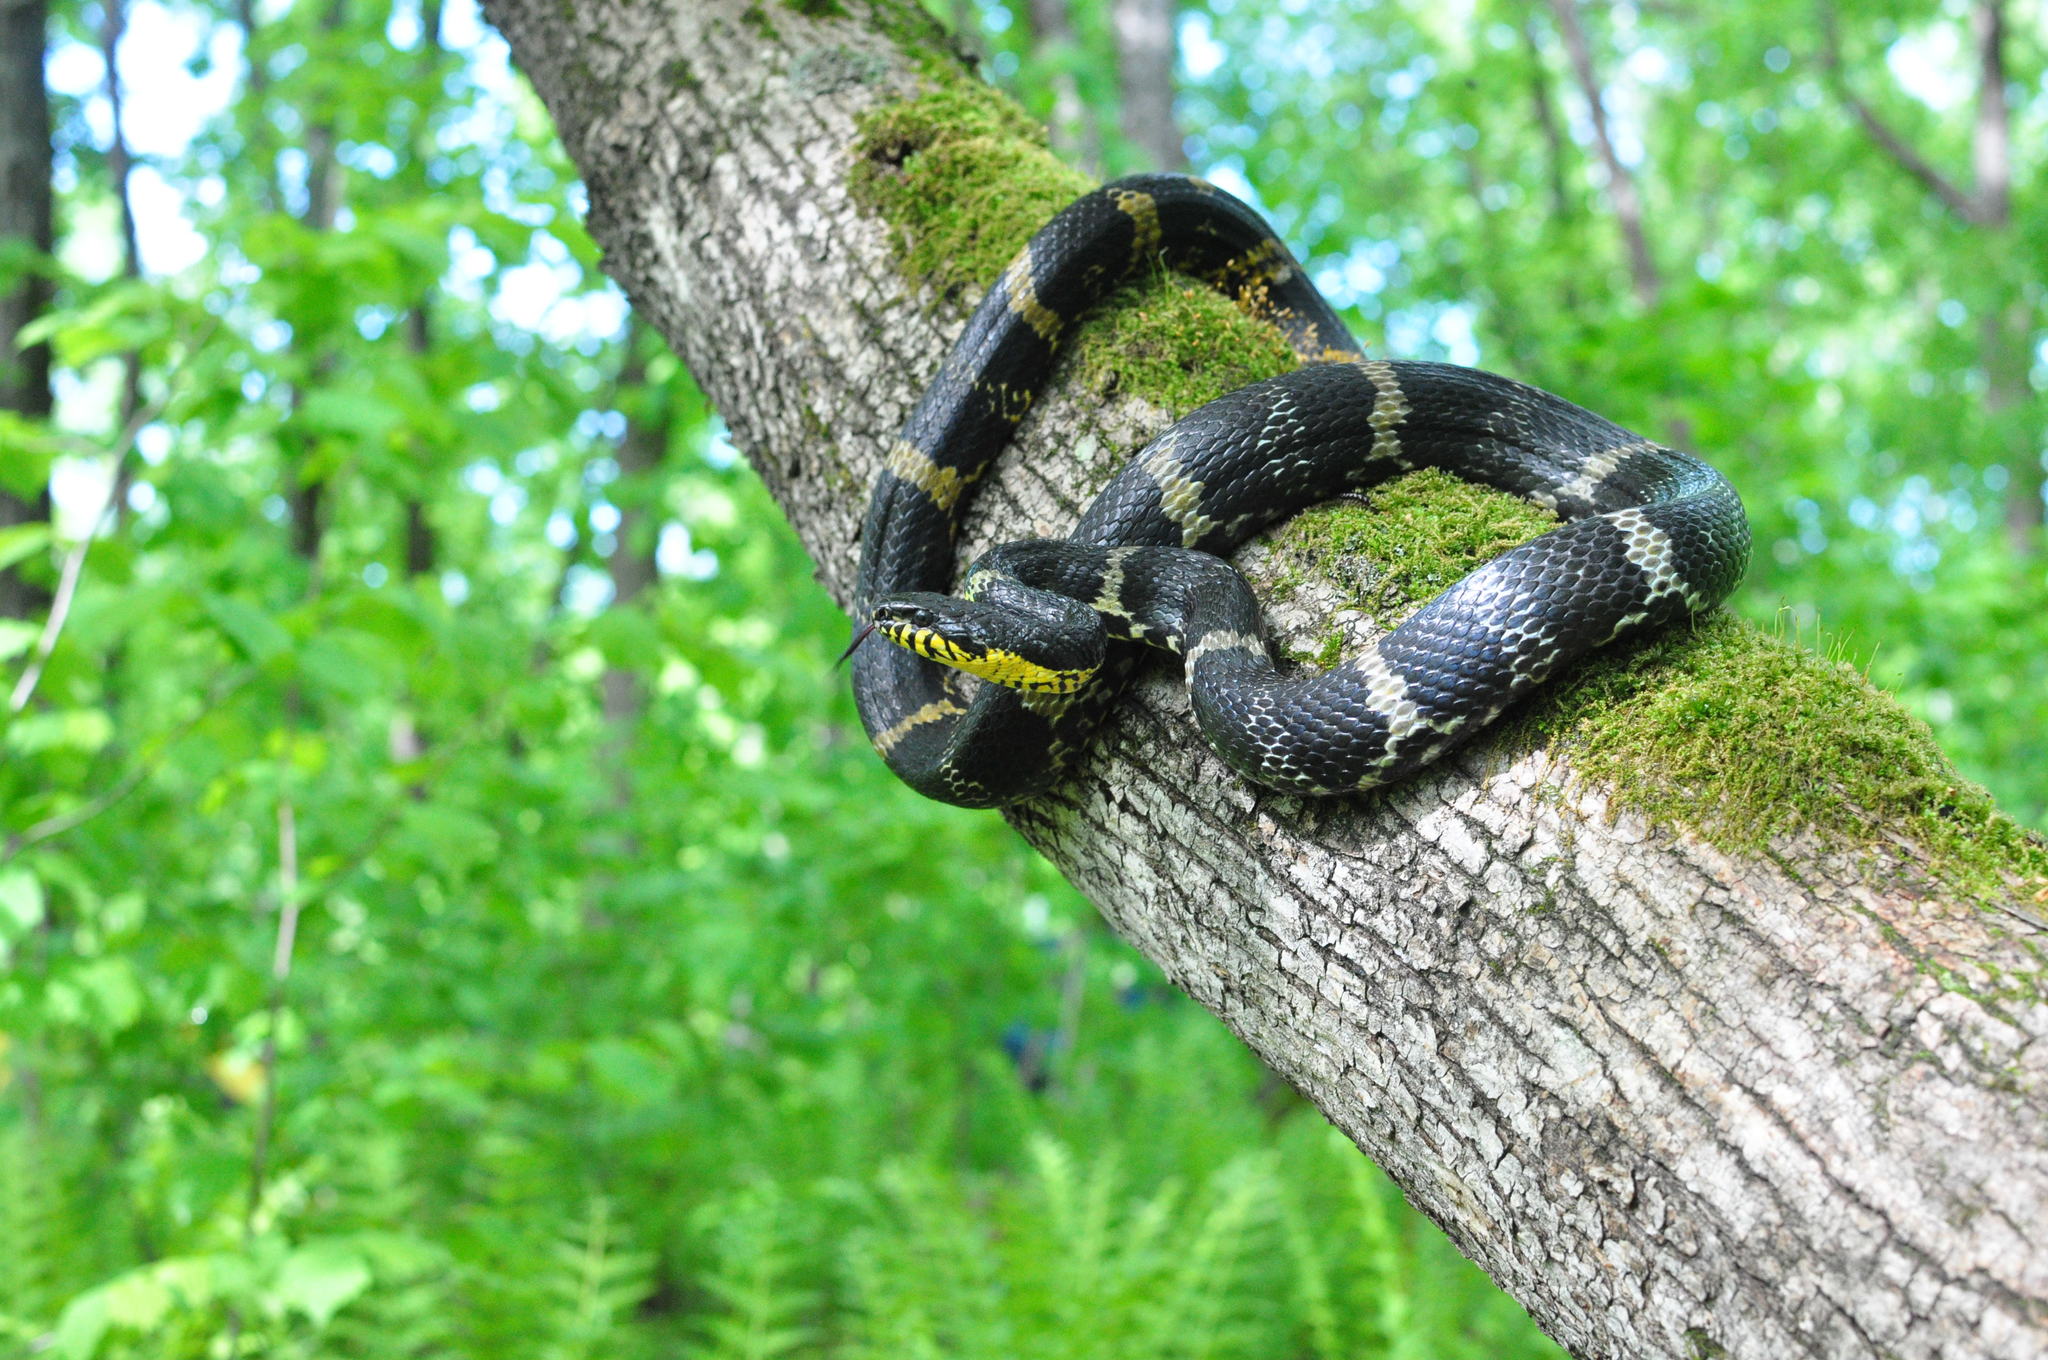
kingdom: Animalia
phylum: Chordata
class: Squamata
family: Colubridae
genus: Elaphe
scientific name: Elaphe schrenckii
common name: Amur rat snake
